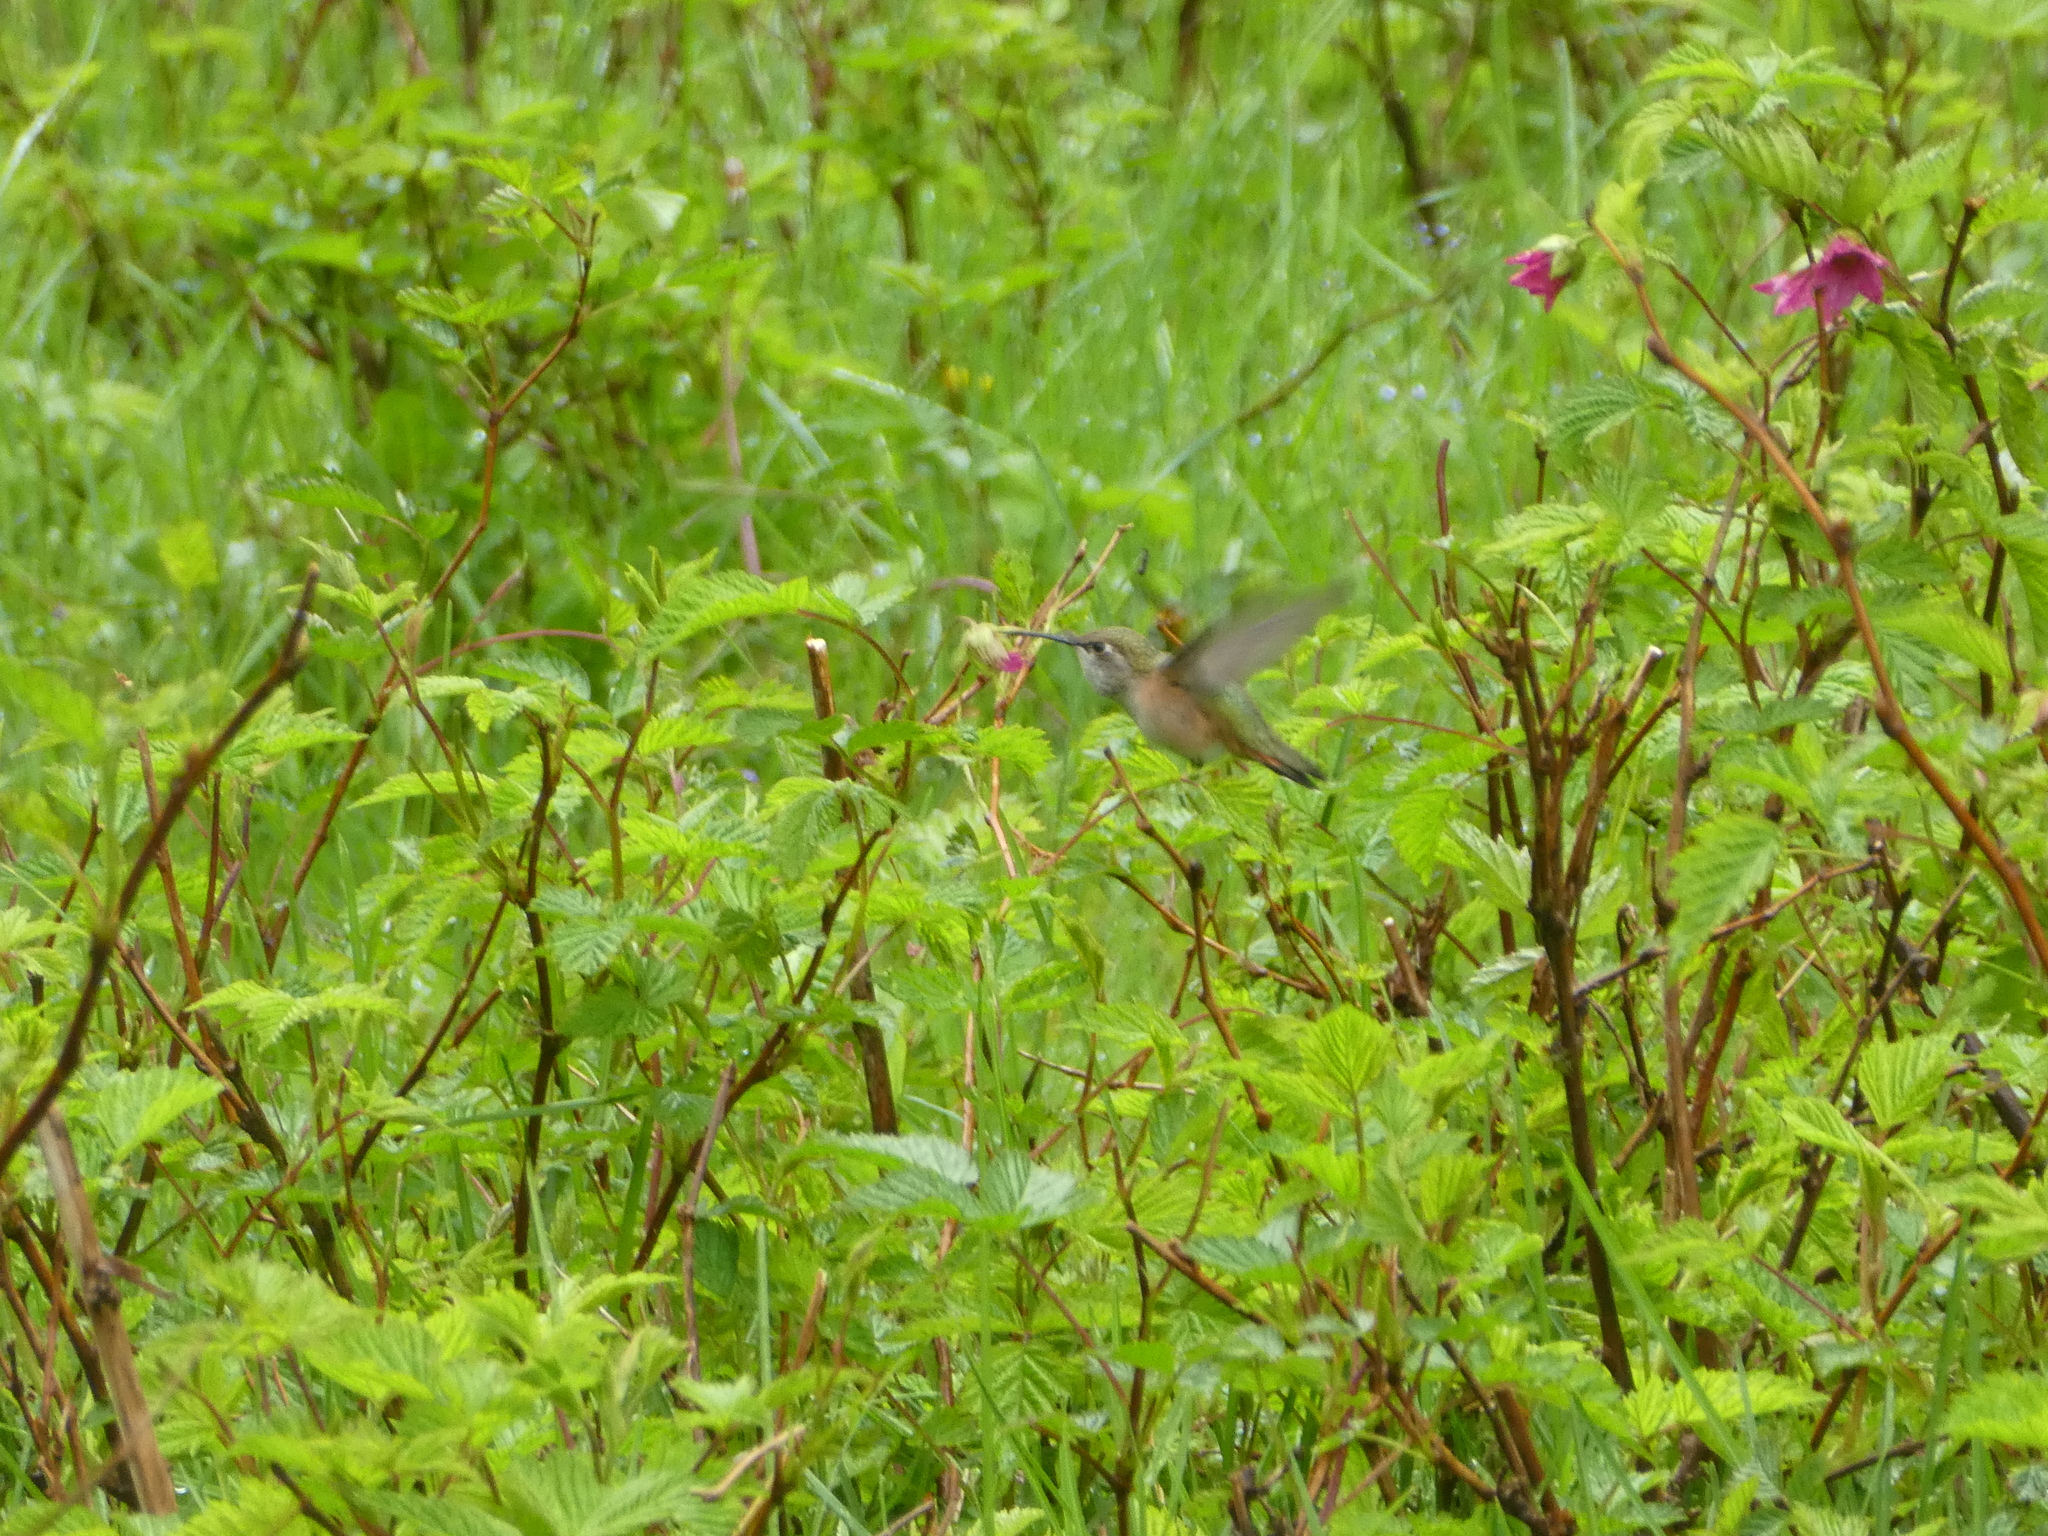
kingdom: Animalia
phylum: Chordata
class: Aves
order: Apodiformes
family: Trochilidae
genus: Selasphorus
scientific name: Selasphorus rufus
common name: Rufous hummingbird
